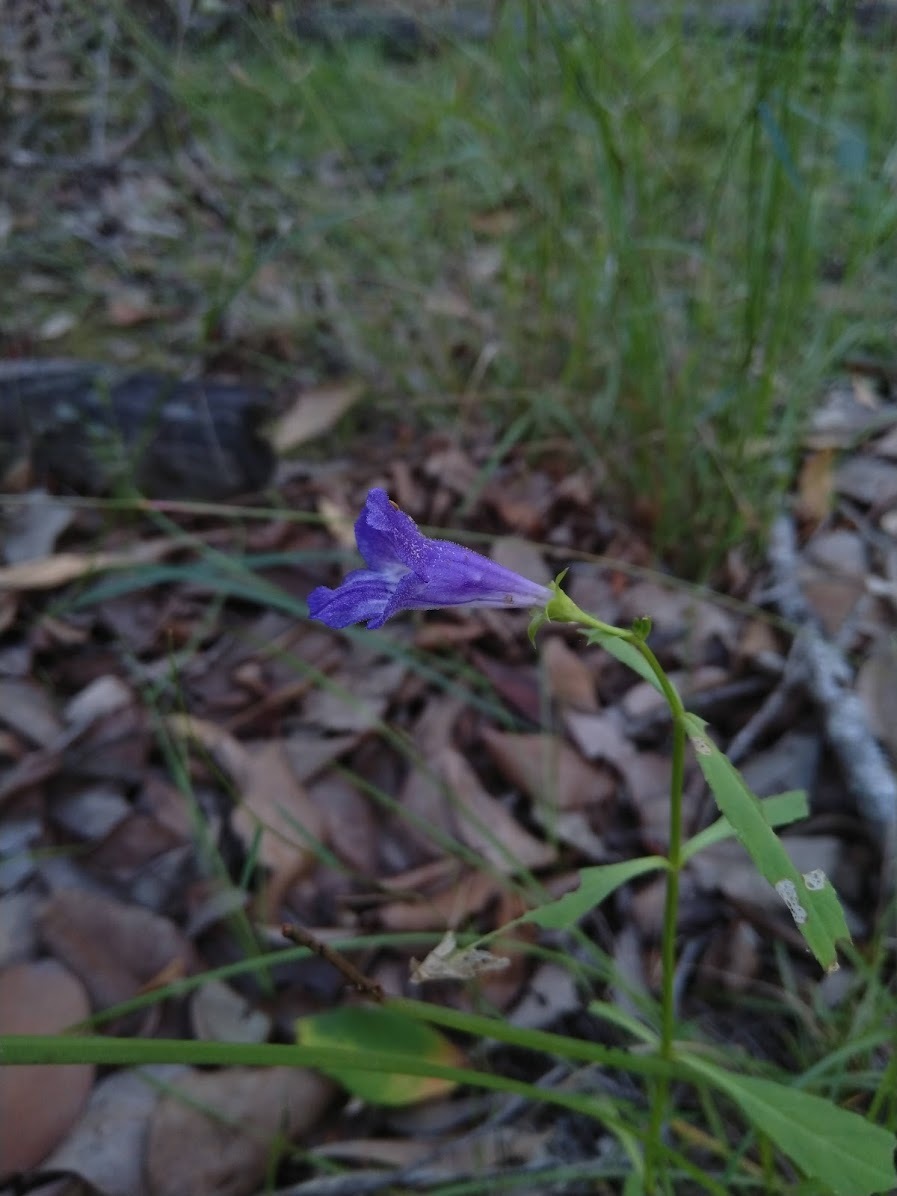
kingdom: Plantae
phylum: Tracheophyta
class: Magnoliopsida
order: Lamiales
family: Linderniaceae
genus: Artanema
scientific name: Artanema fimbriatum
